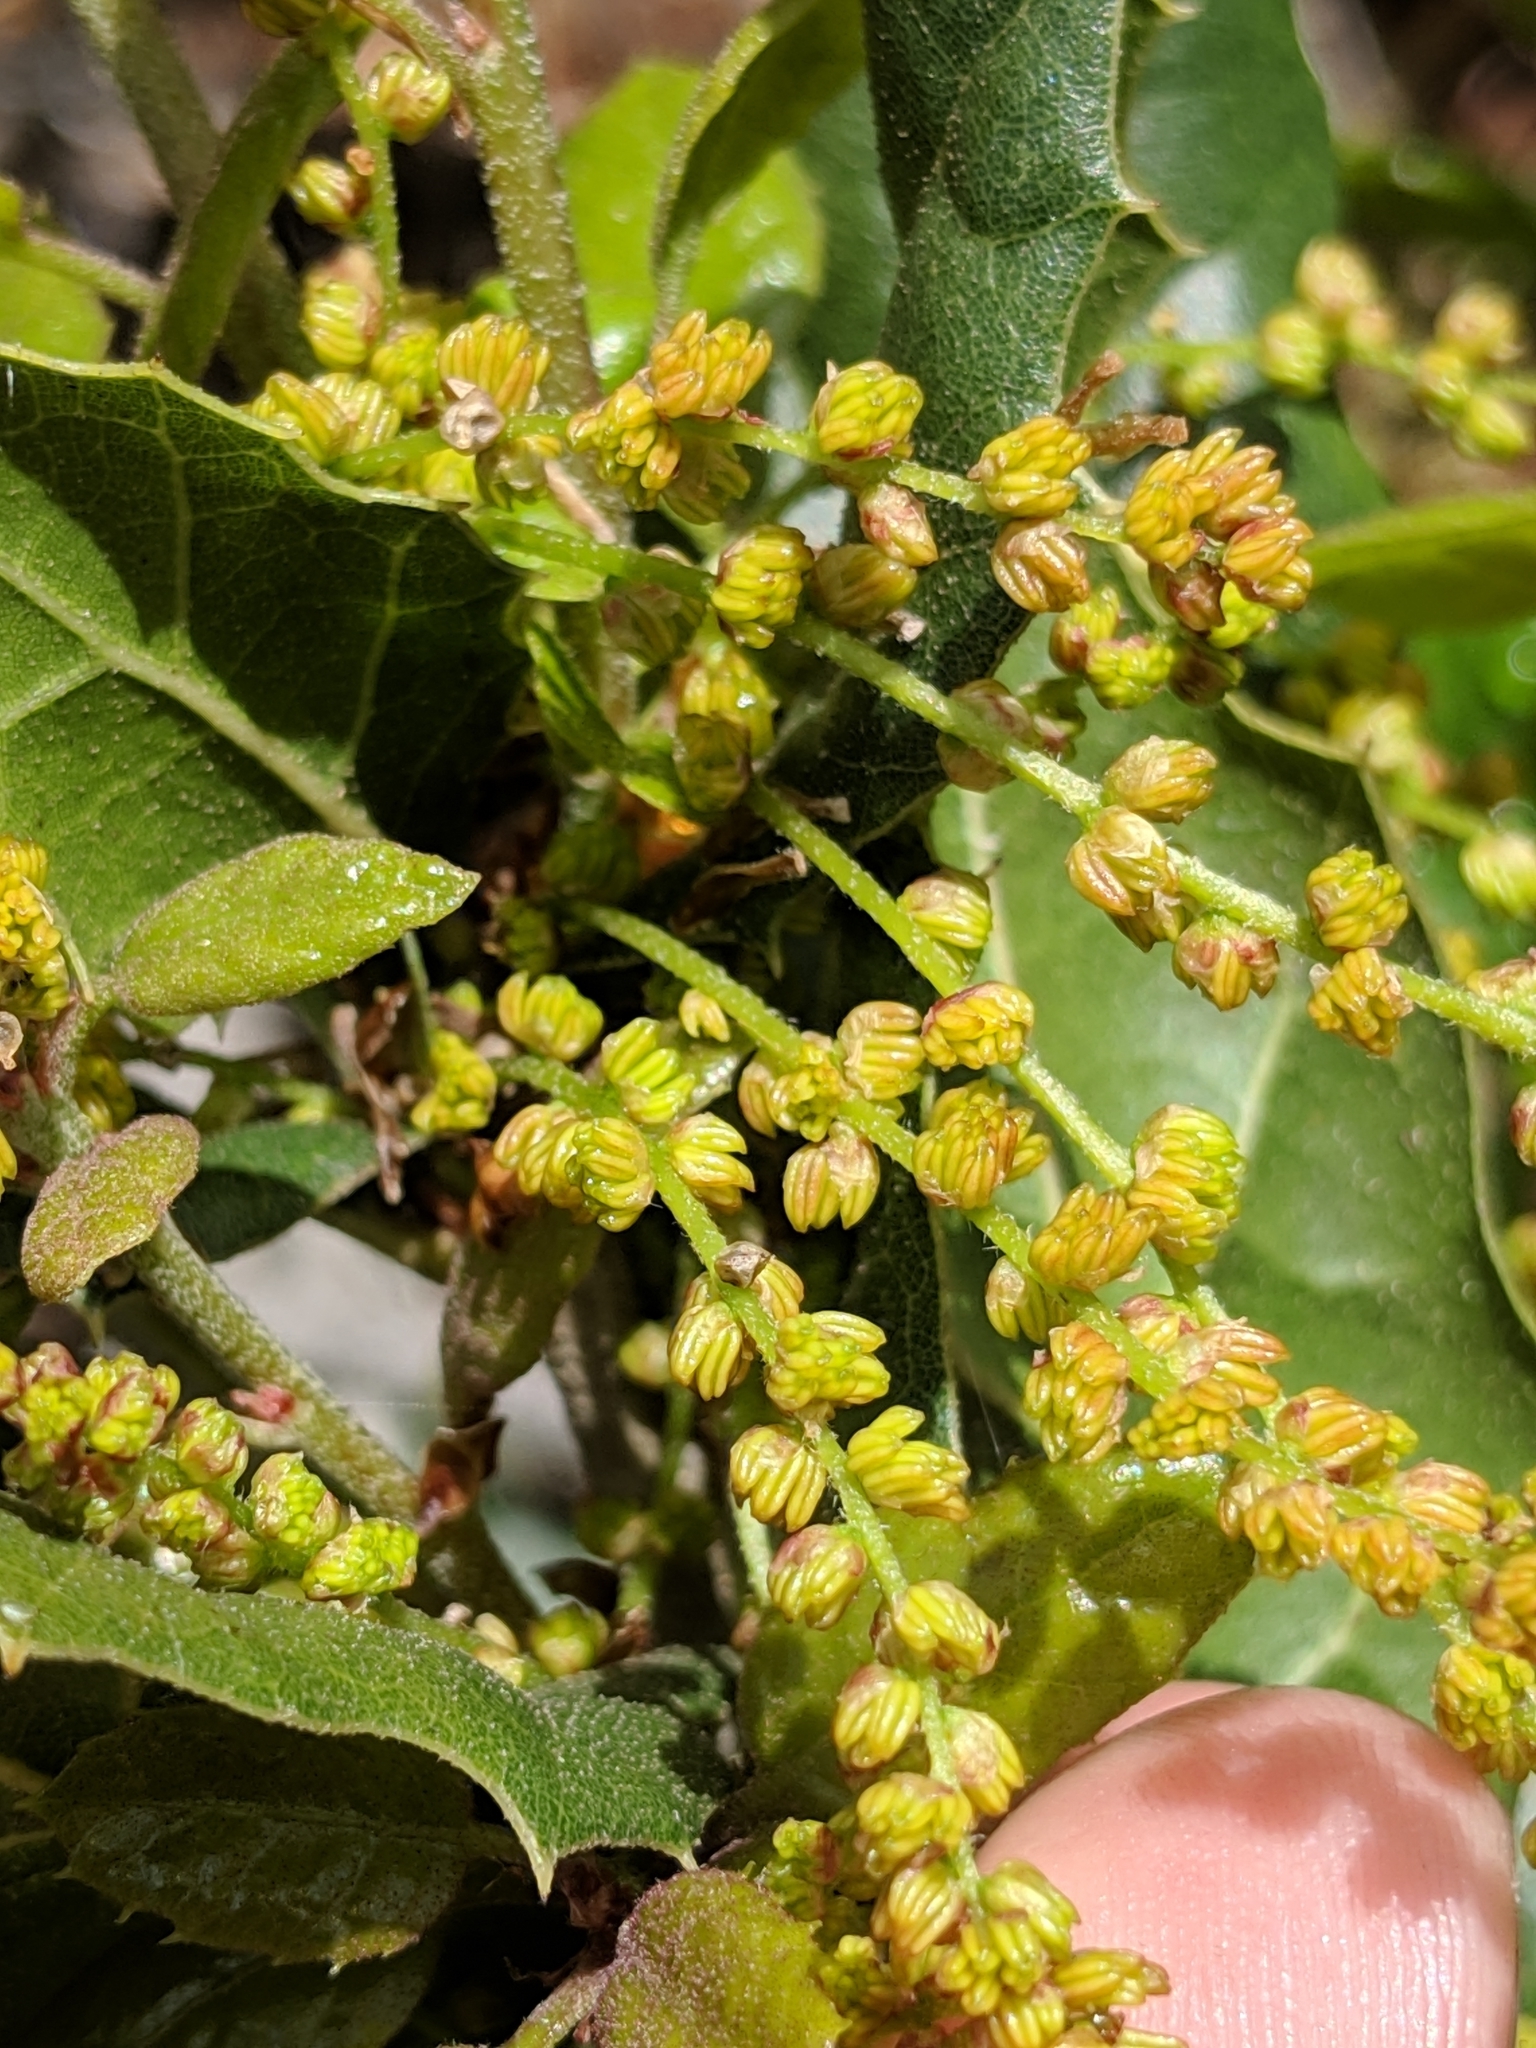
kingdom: Plantae
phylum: Tracheophyta
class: Magnoliopsida
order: Fagales
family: Fagaceae
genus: Quercus
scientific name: Quercus agrifolia
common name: California live oak
